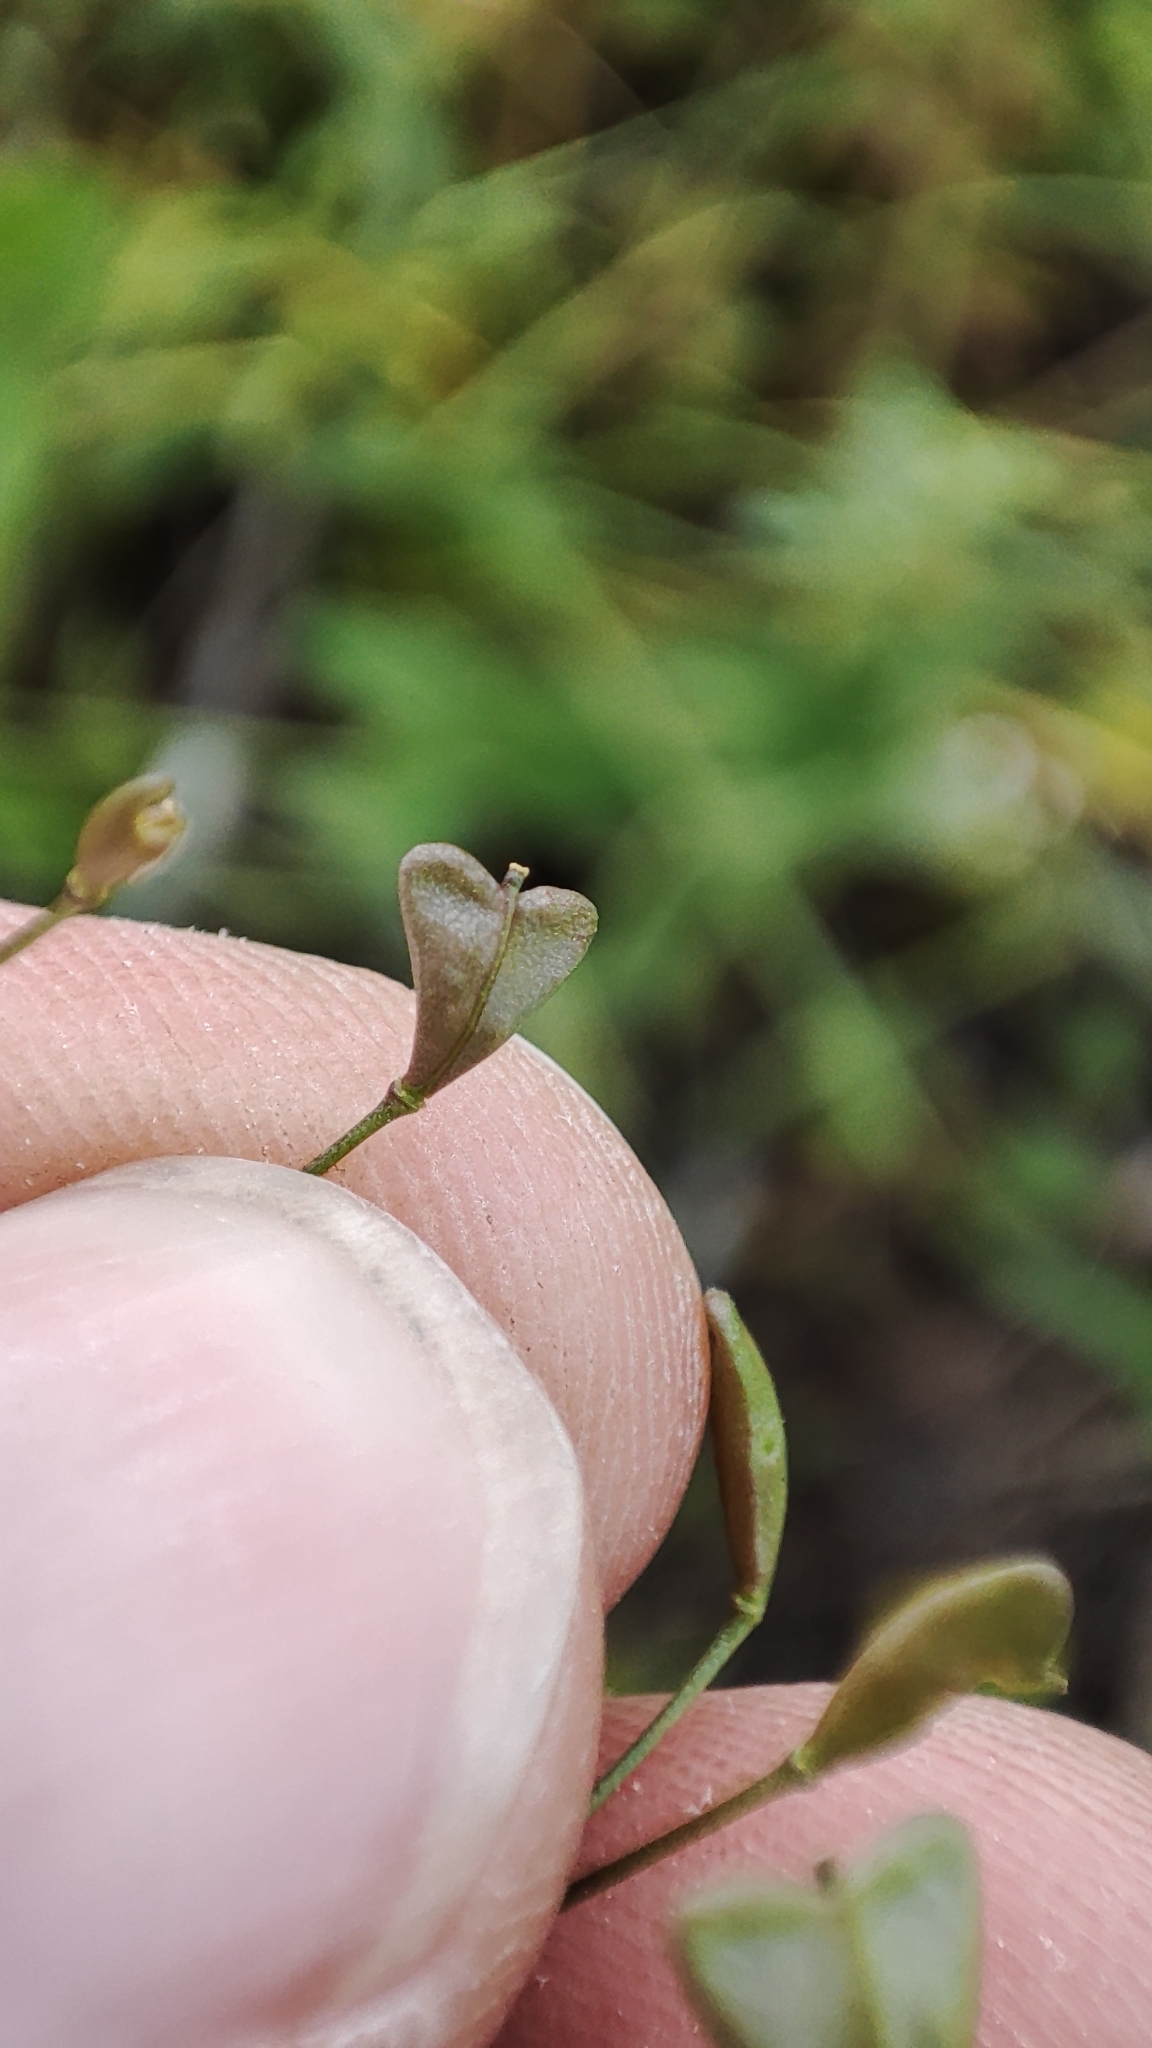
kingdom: Plantae
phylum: Tracheophyta
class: Magnoliopsida
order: Brassicales
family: Brassicaceae
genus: Capsella
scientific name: Capsella bursa-pastoris
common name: Shepherd's purse
